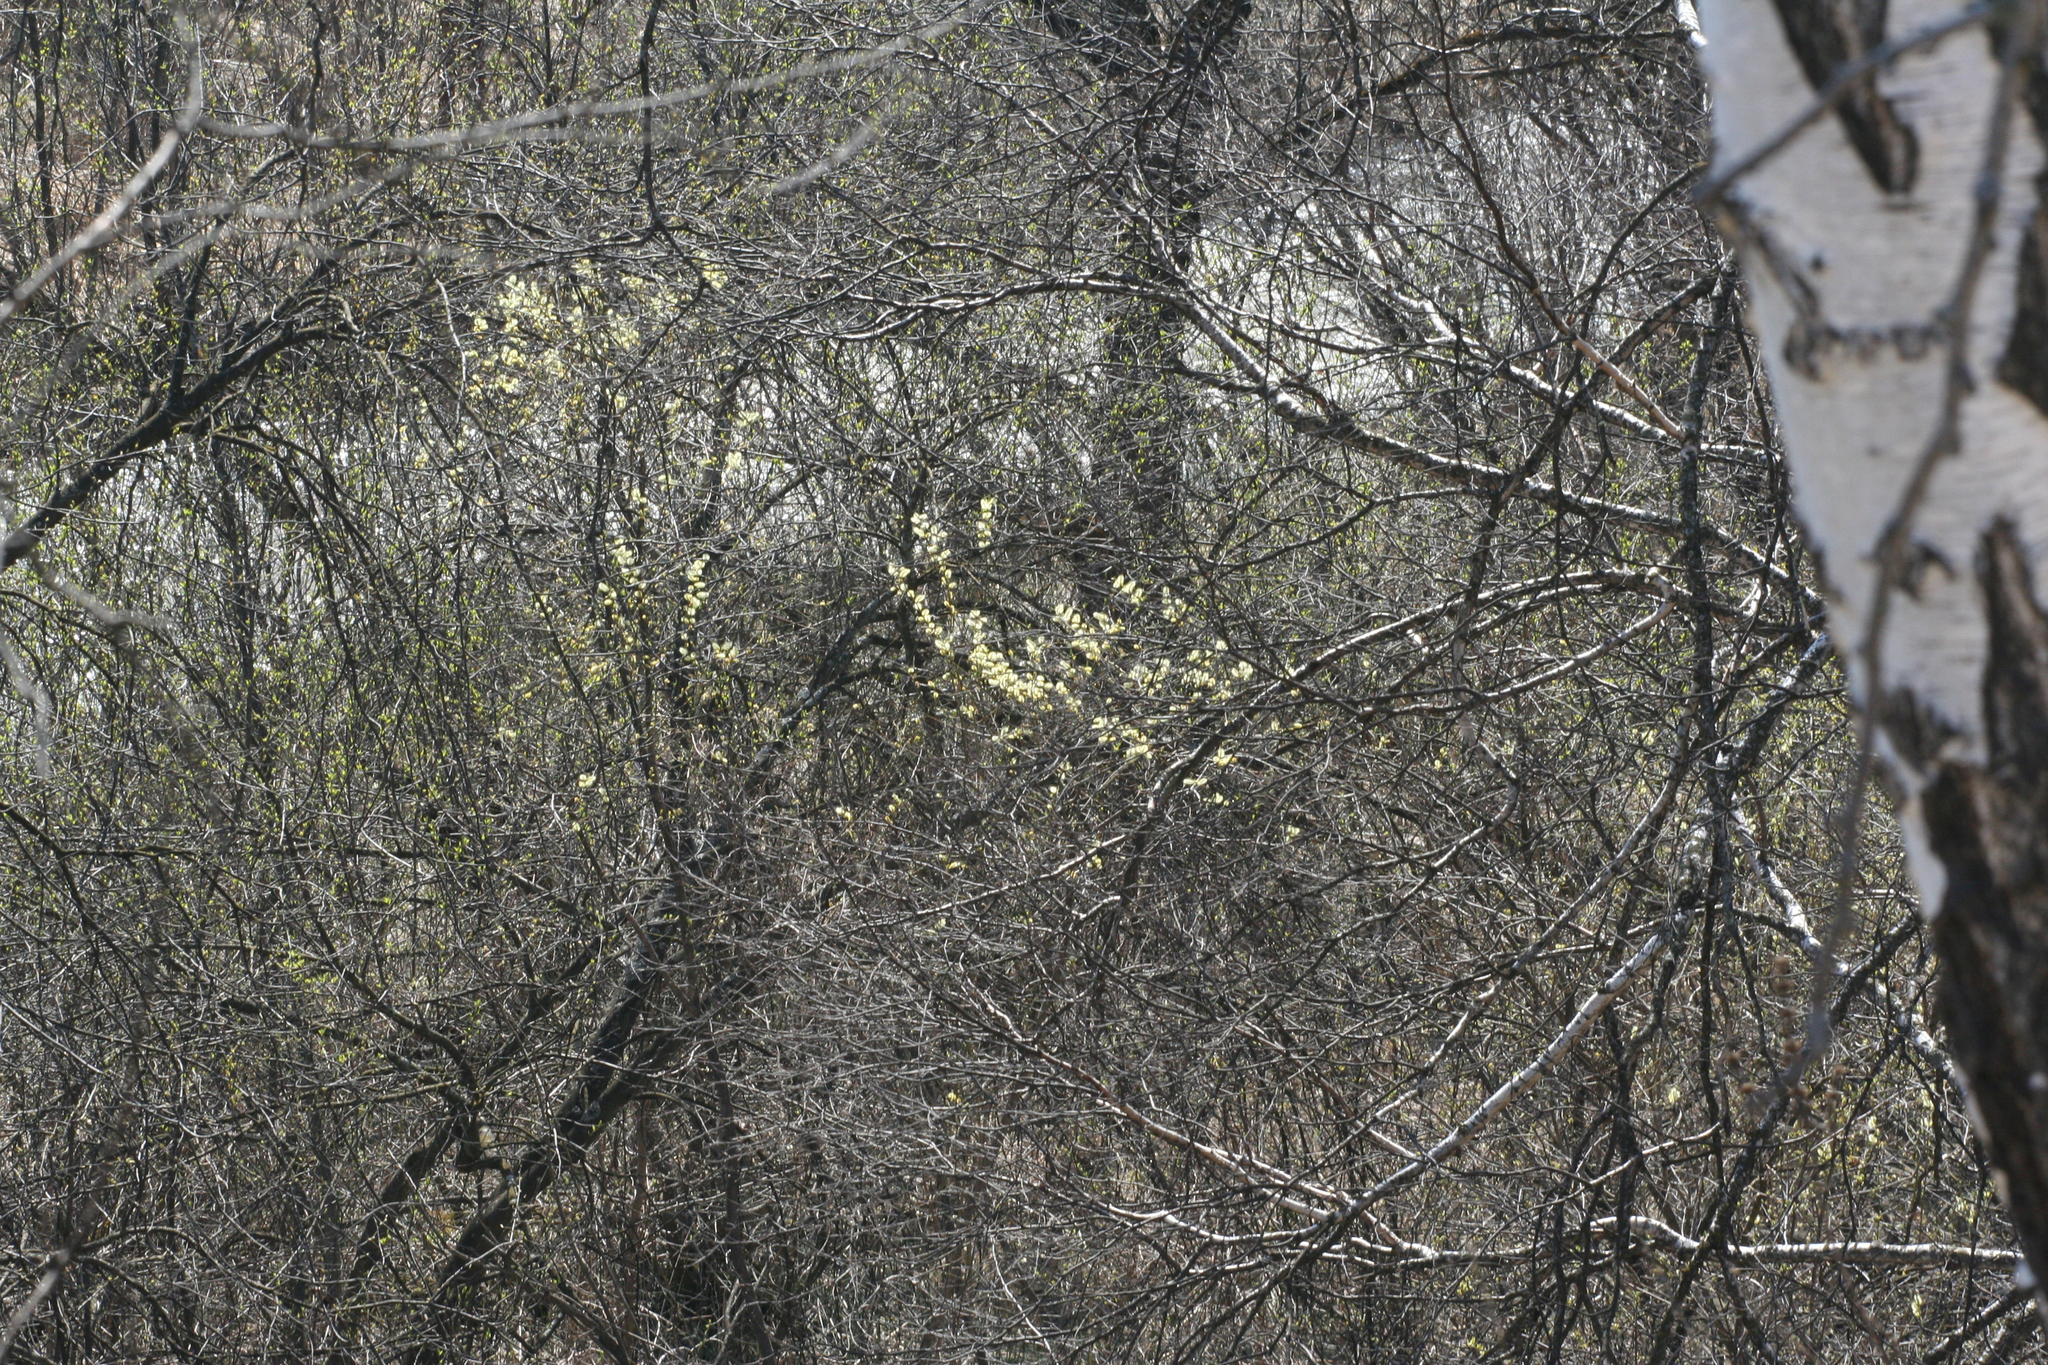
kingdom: Plantae
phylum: Tracheophyta
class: Magnoliopsida
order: Malpighiales
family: Salicaceae
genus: Salix
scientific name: Salix caprea
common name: Goat willow
